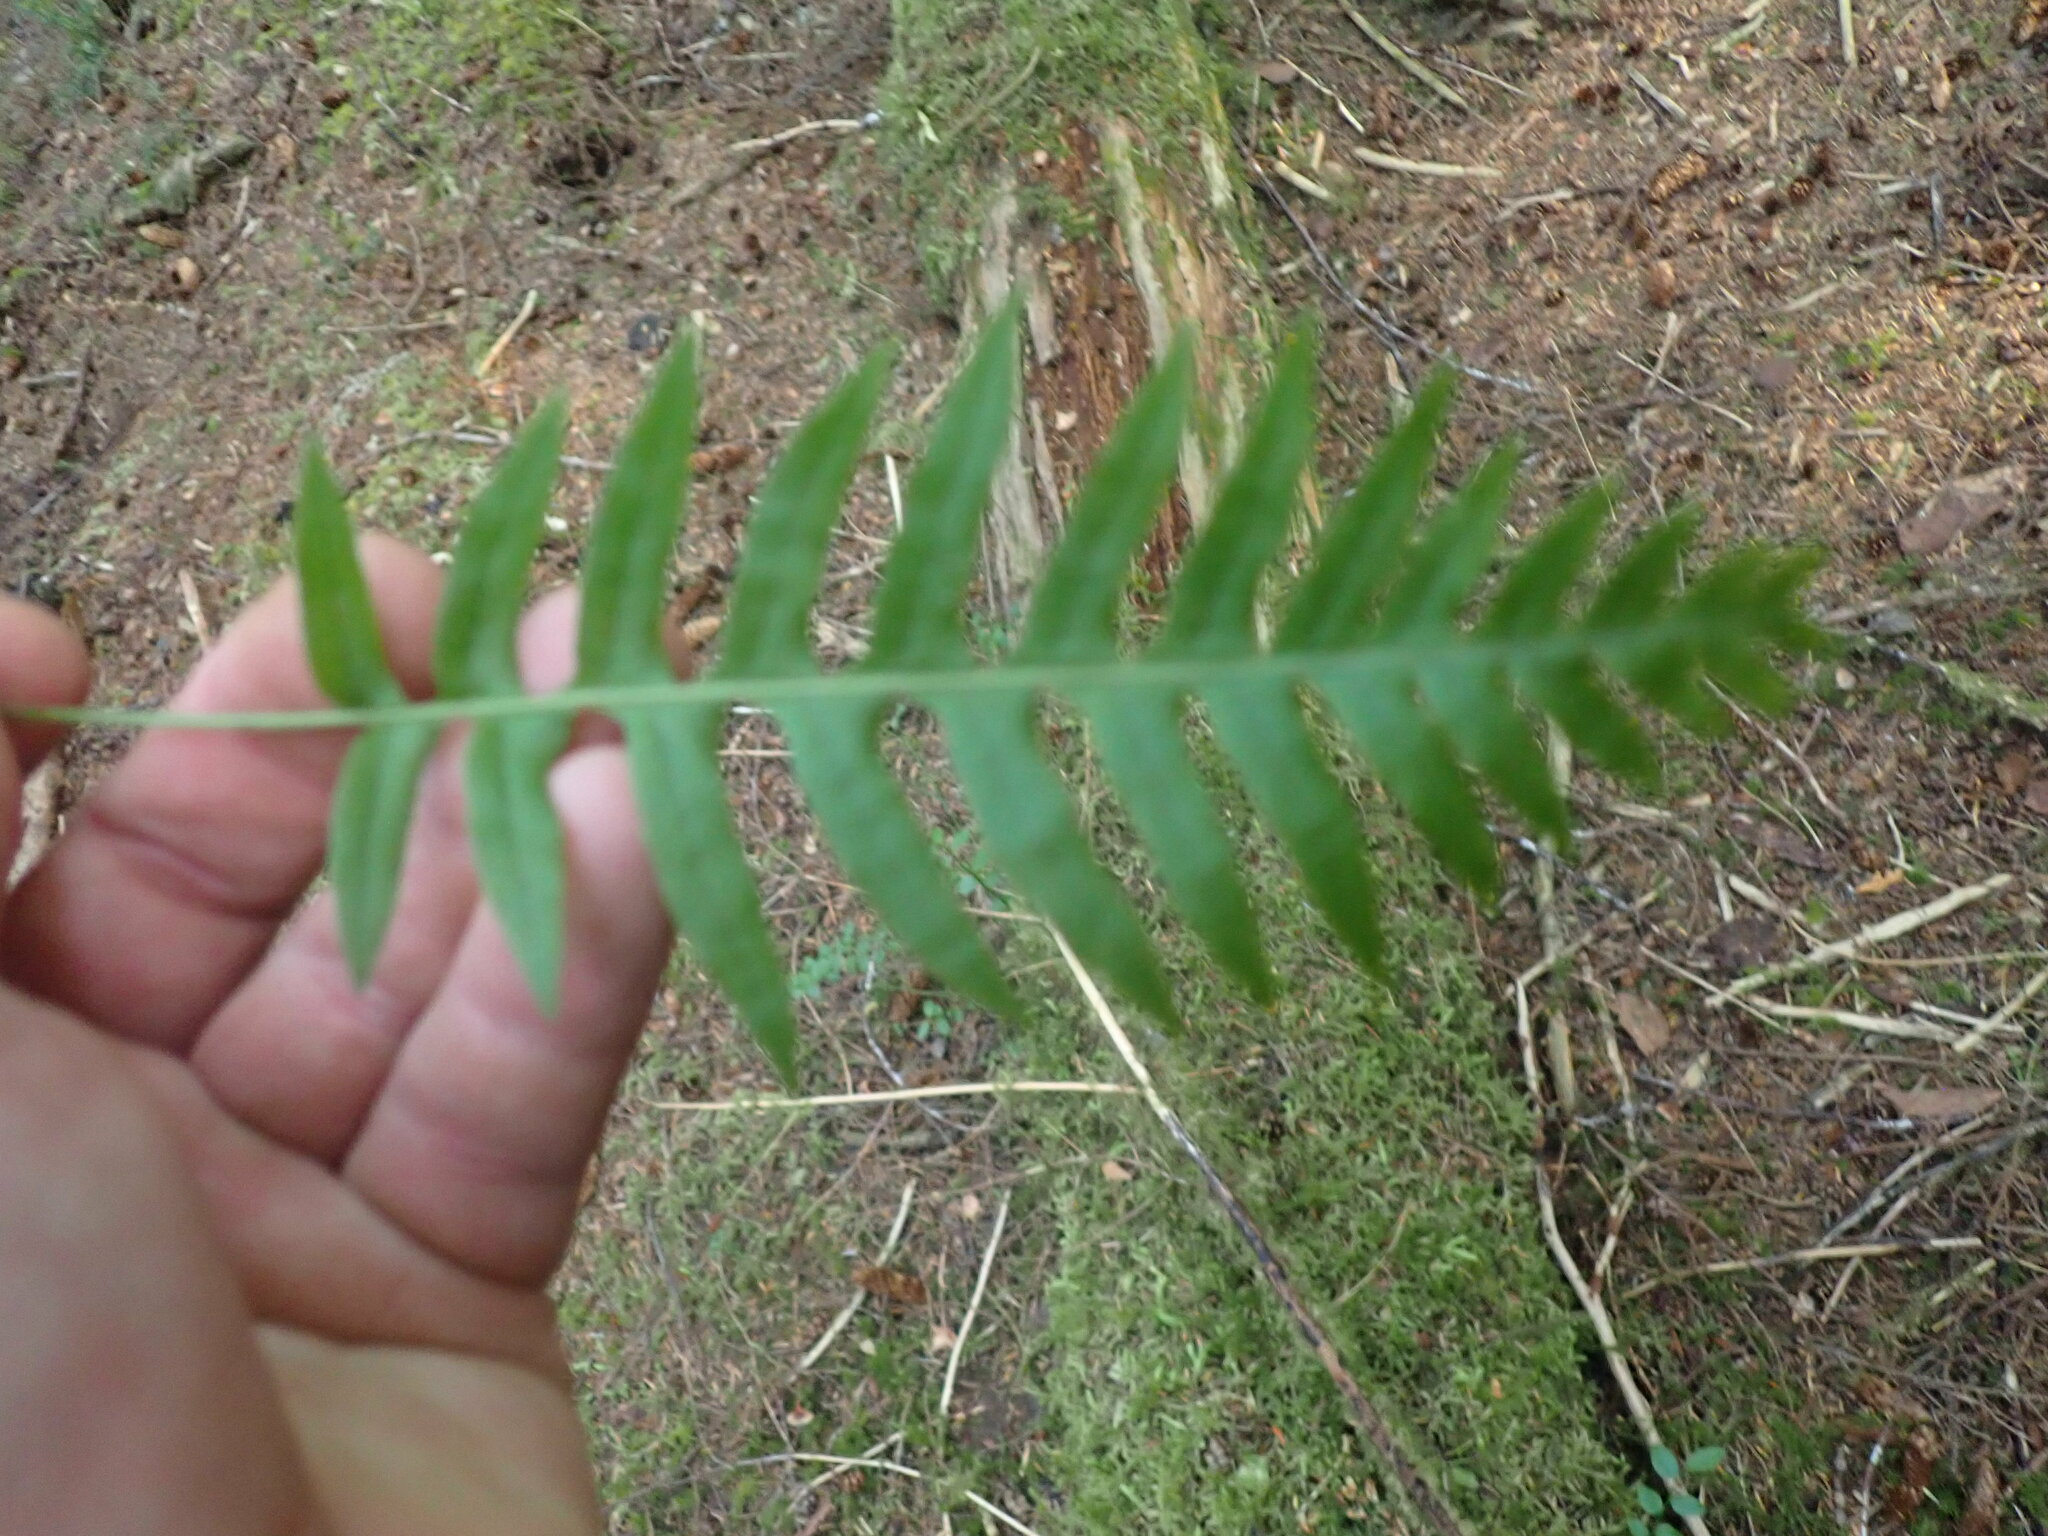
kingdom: Plantae
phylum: Tracheophyta
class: Polypodiopsida
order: Polypodiales
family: Polypodiaceae
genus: Polypodium
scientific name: Polypodium glycyrrhiza
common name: Licorice fern
